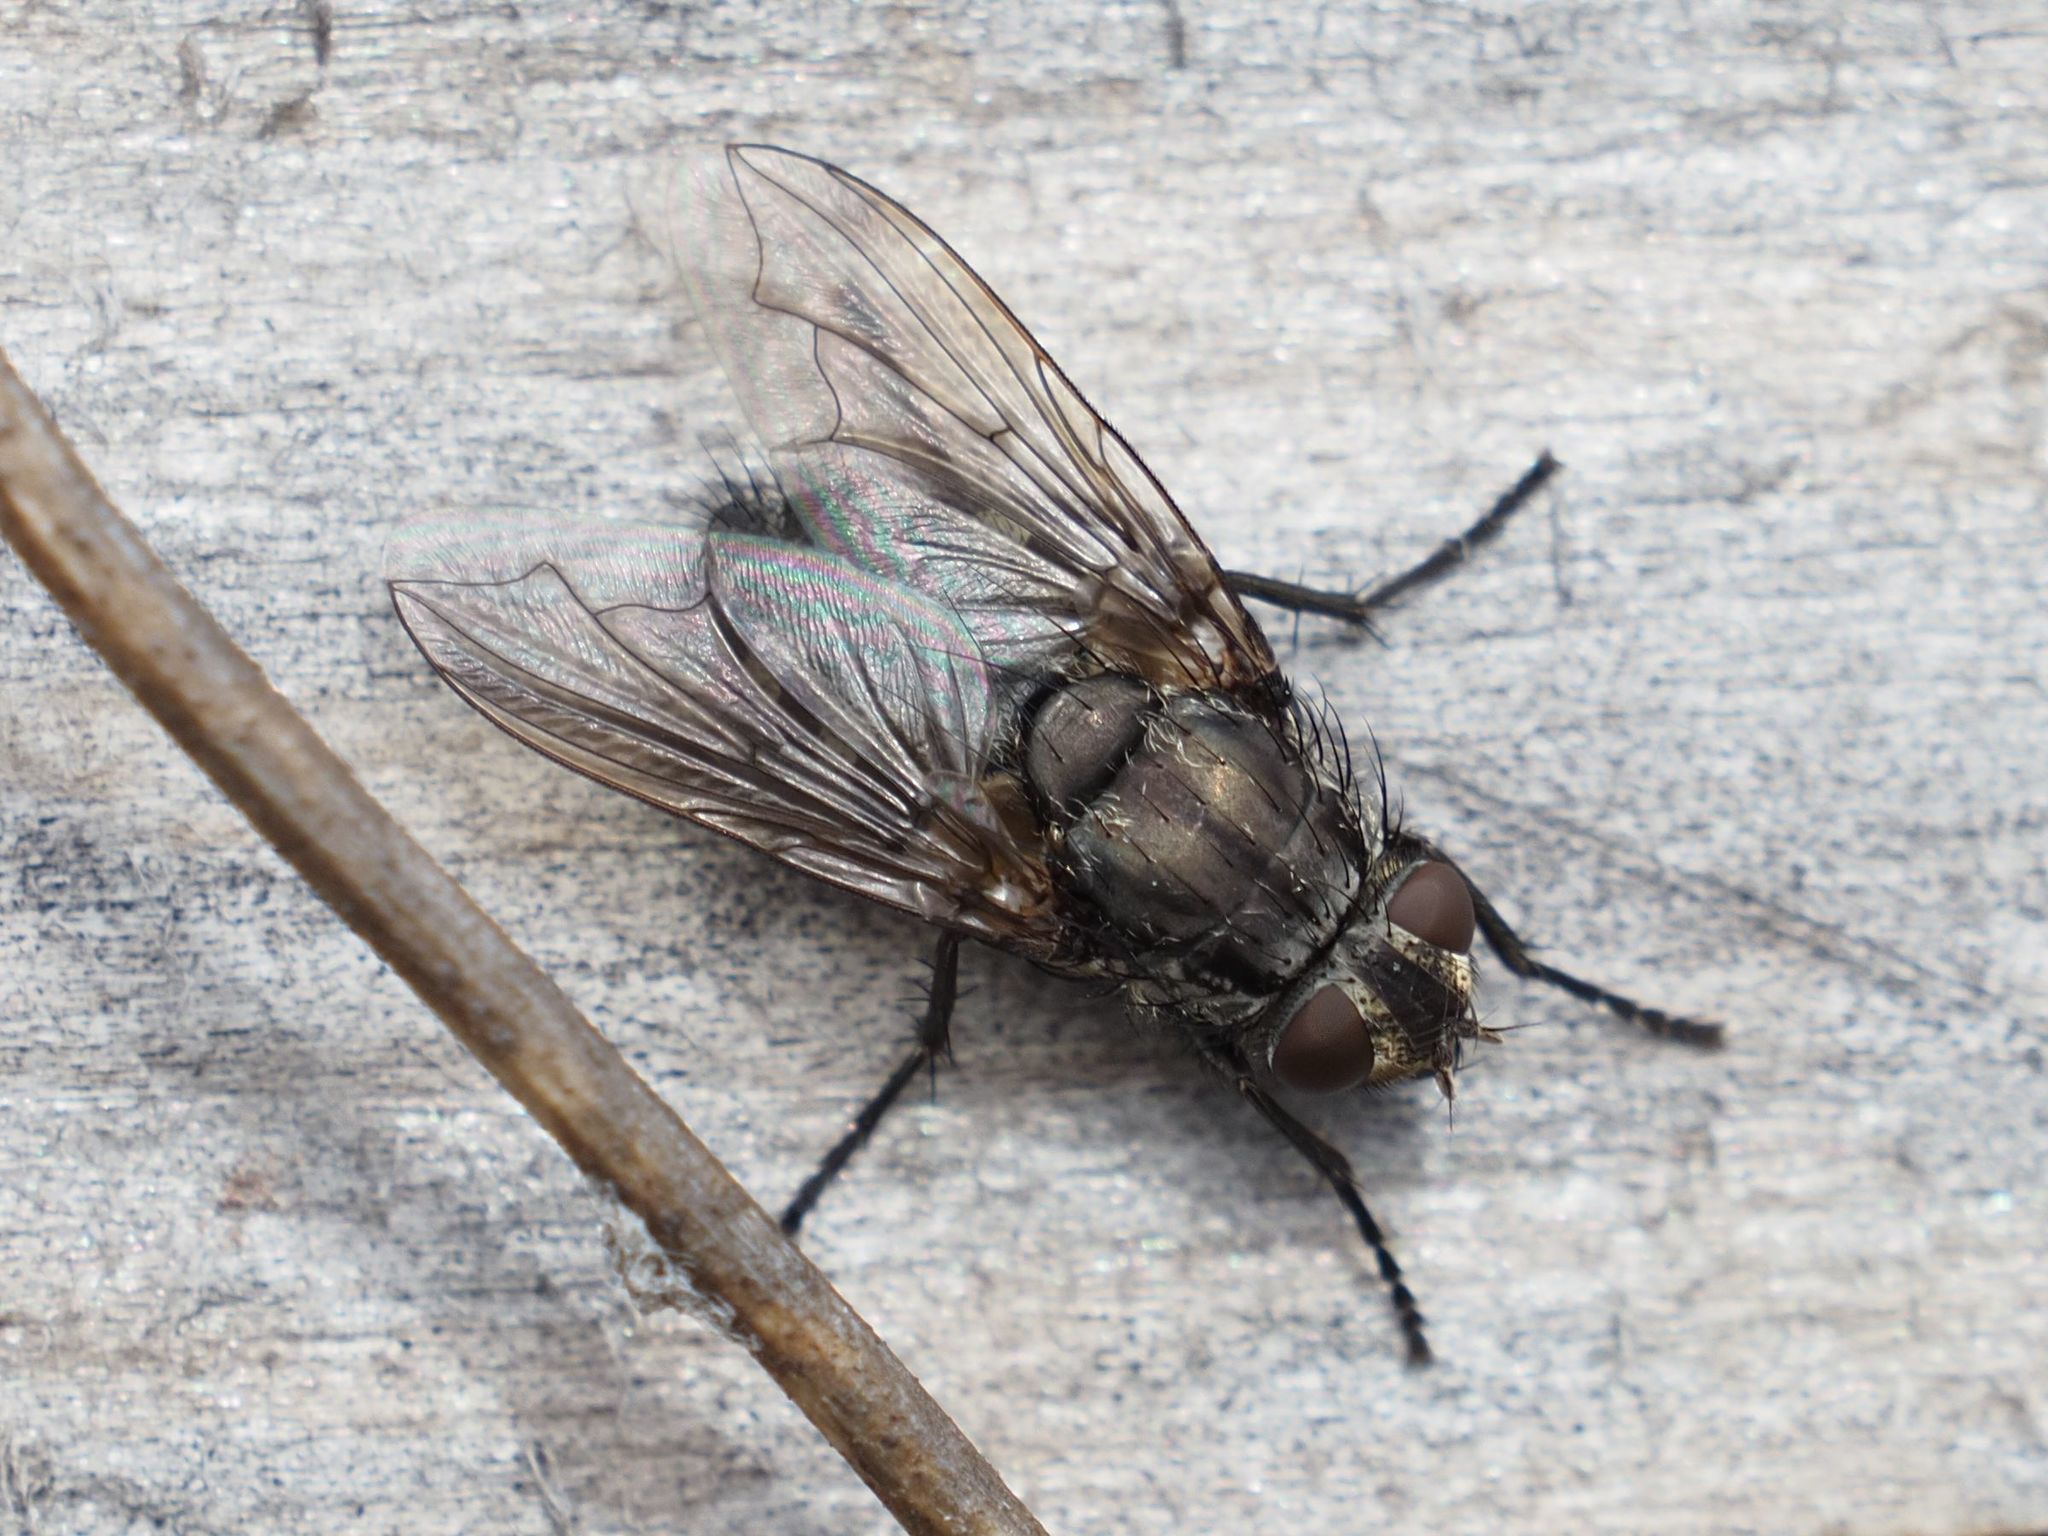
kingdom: Animalia
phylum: Arthropoda
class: Insecta
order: Diptera
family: Polleniidae
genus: Pollenia
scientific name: Pollenia vagabunda
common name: Vagabund cluster fly
